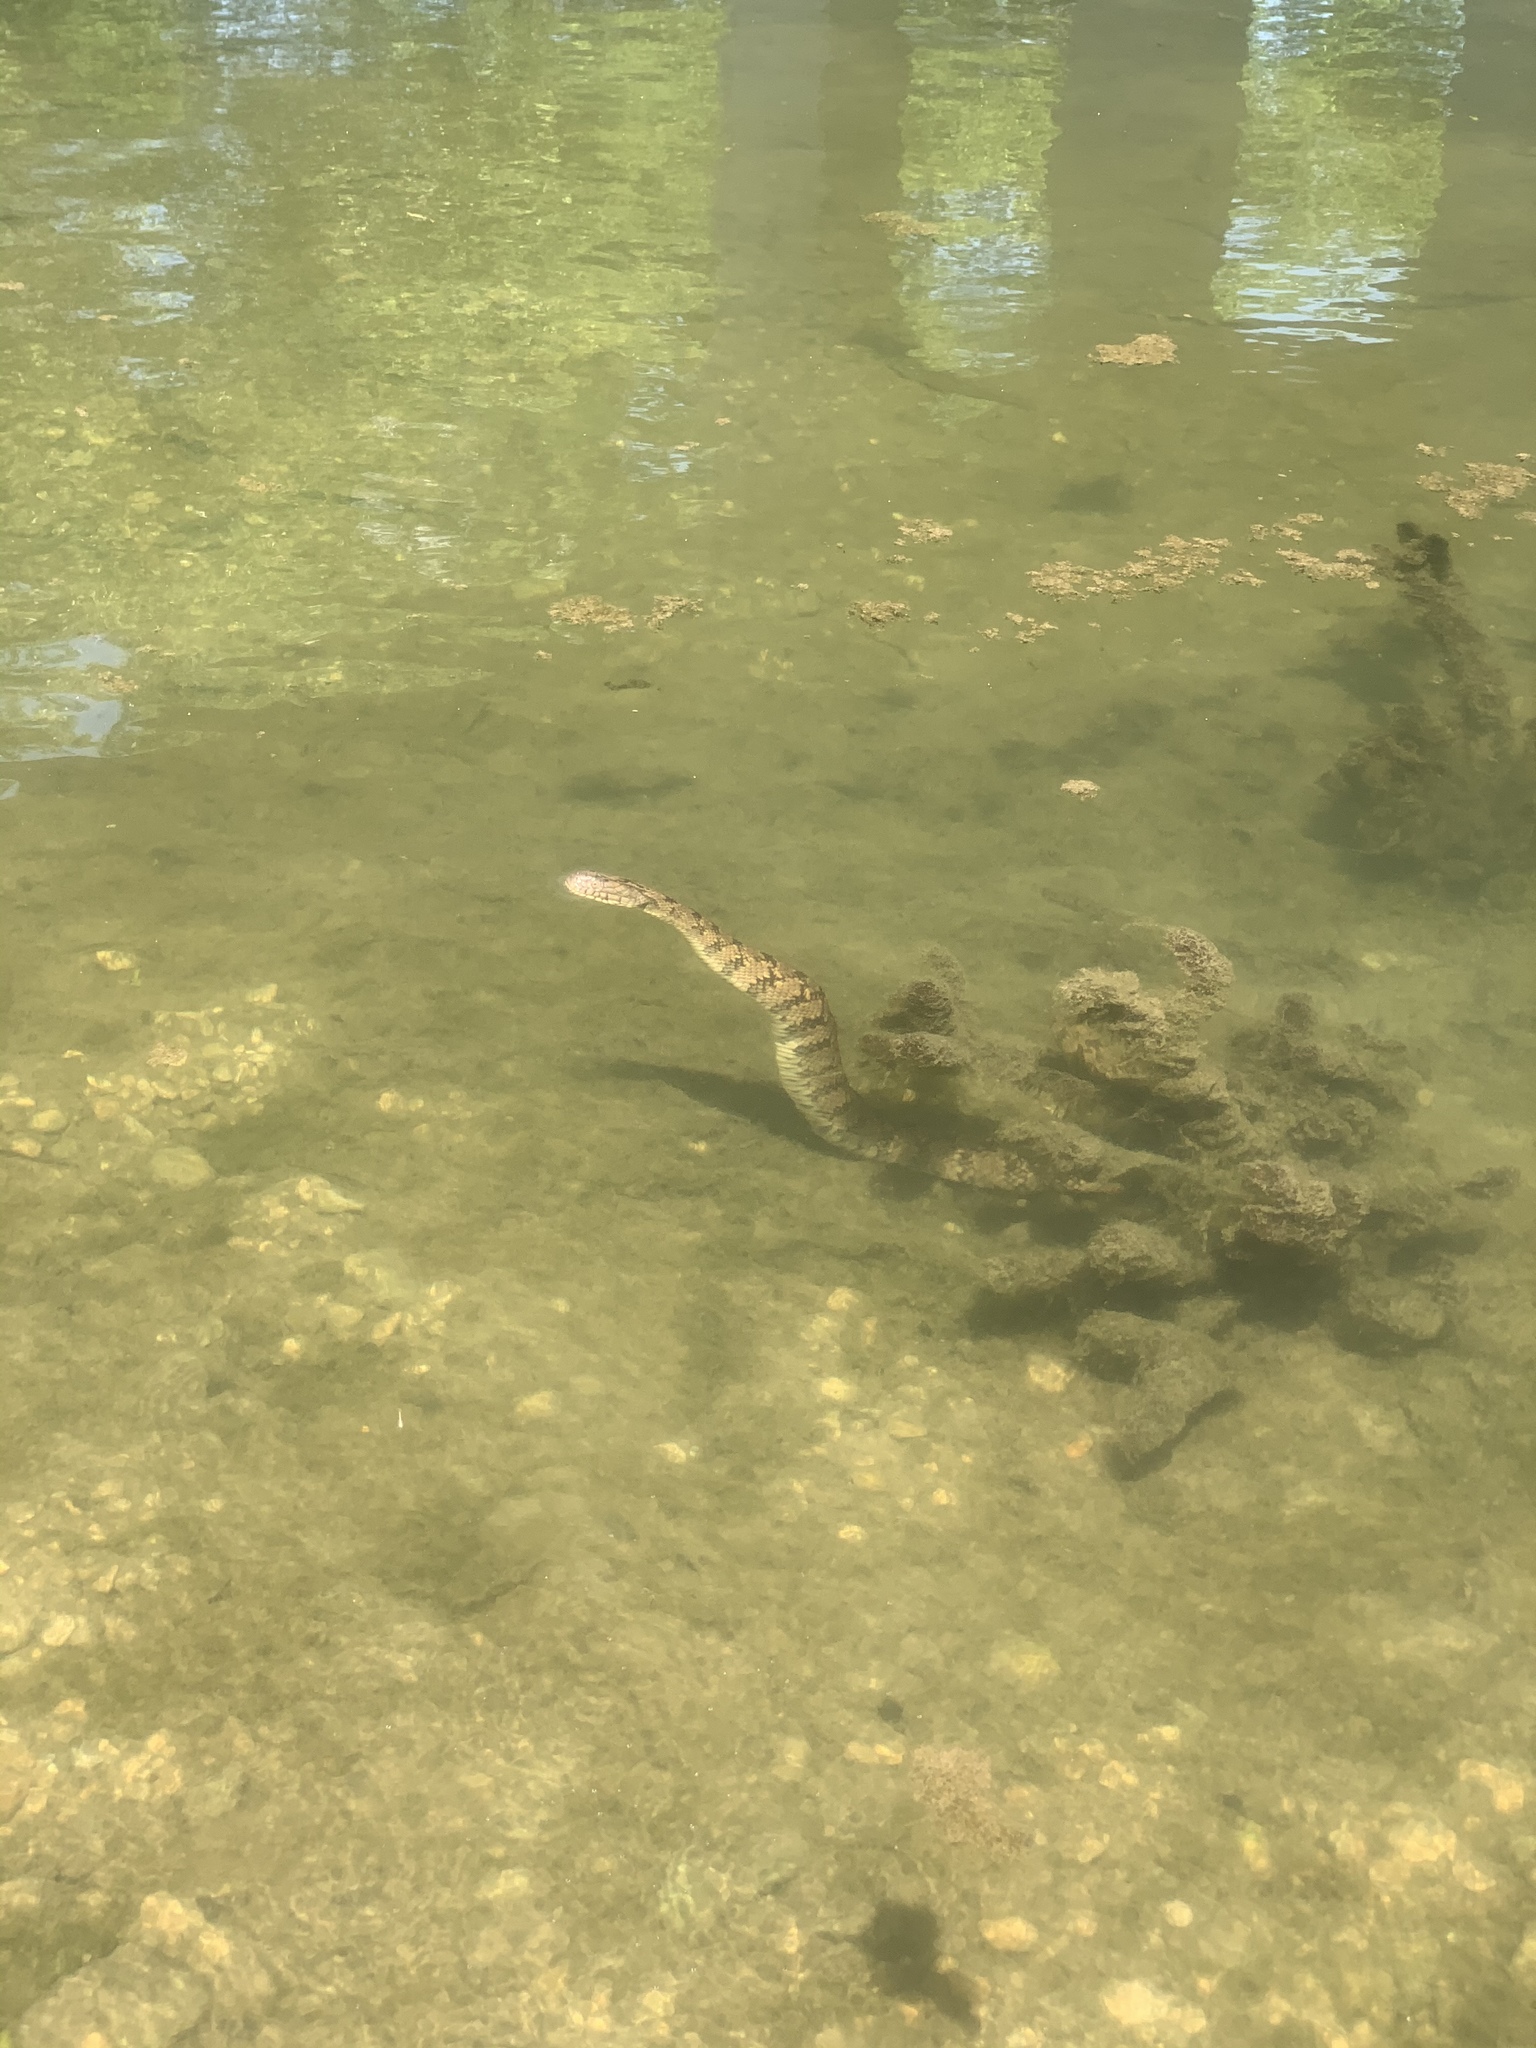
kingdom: Animalia
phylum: Chordata
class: Squamata
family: Colubridae
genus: Nerodia
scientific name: Nerodia rhombifer
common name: Diamondback water snake
